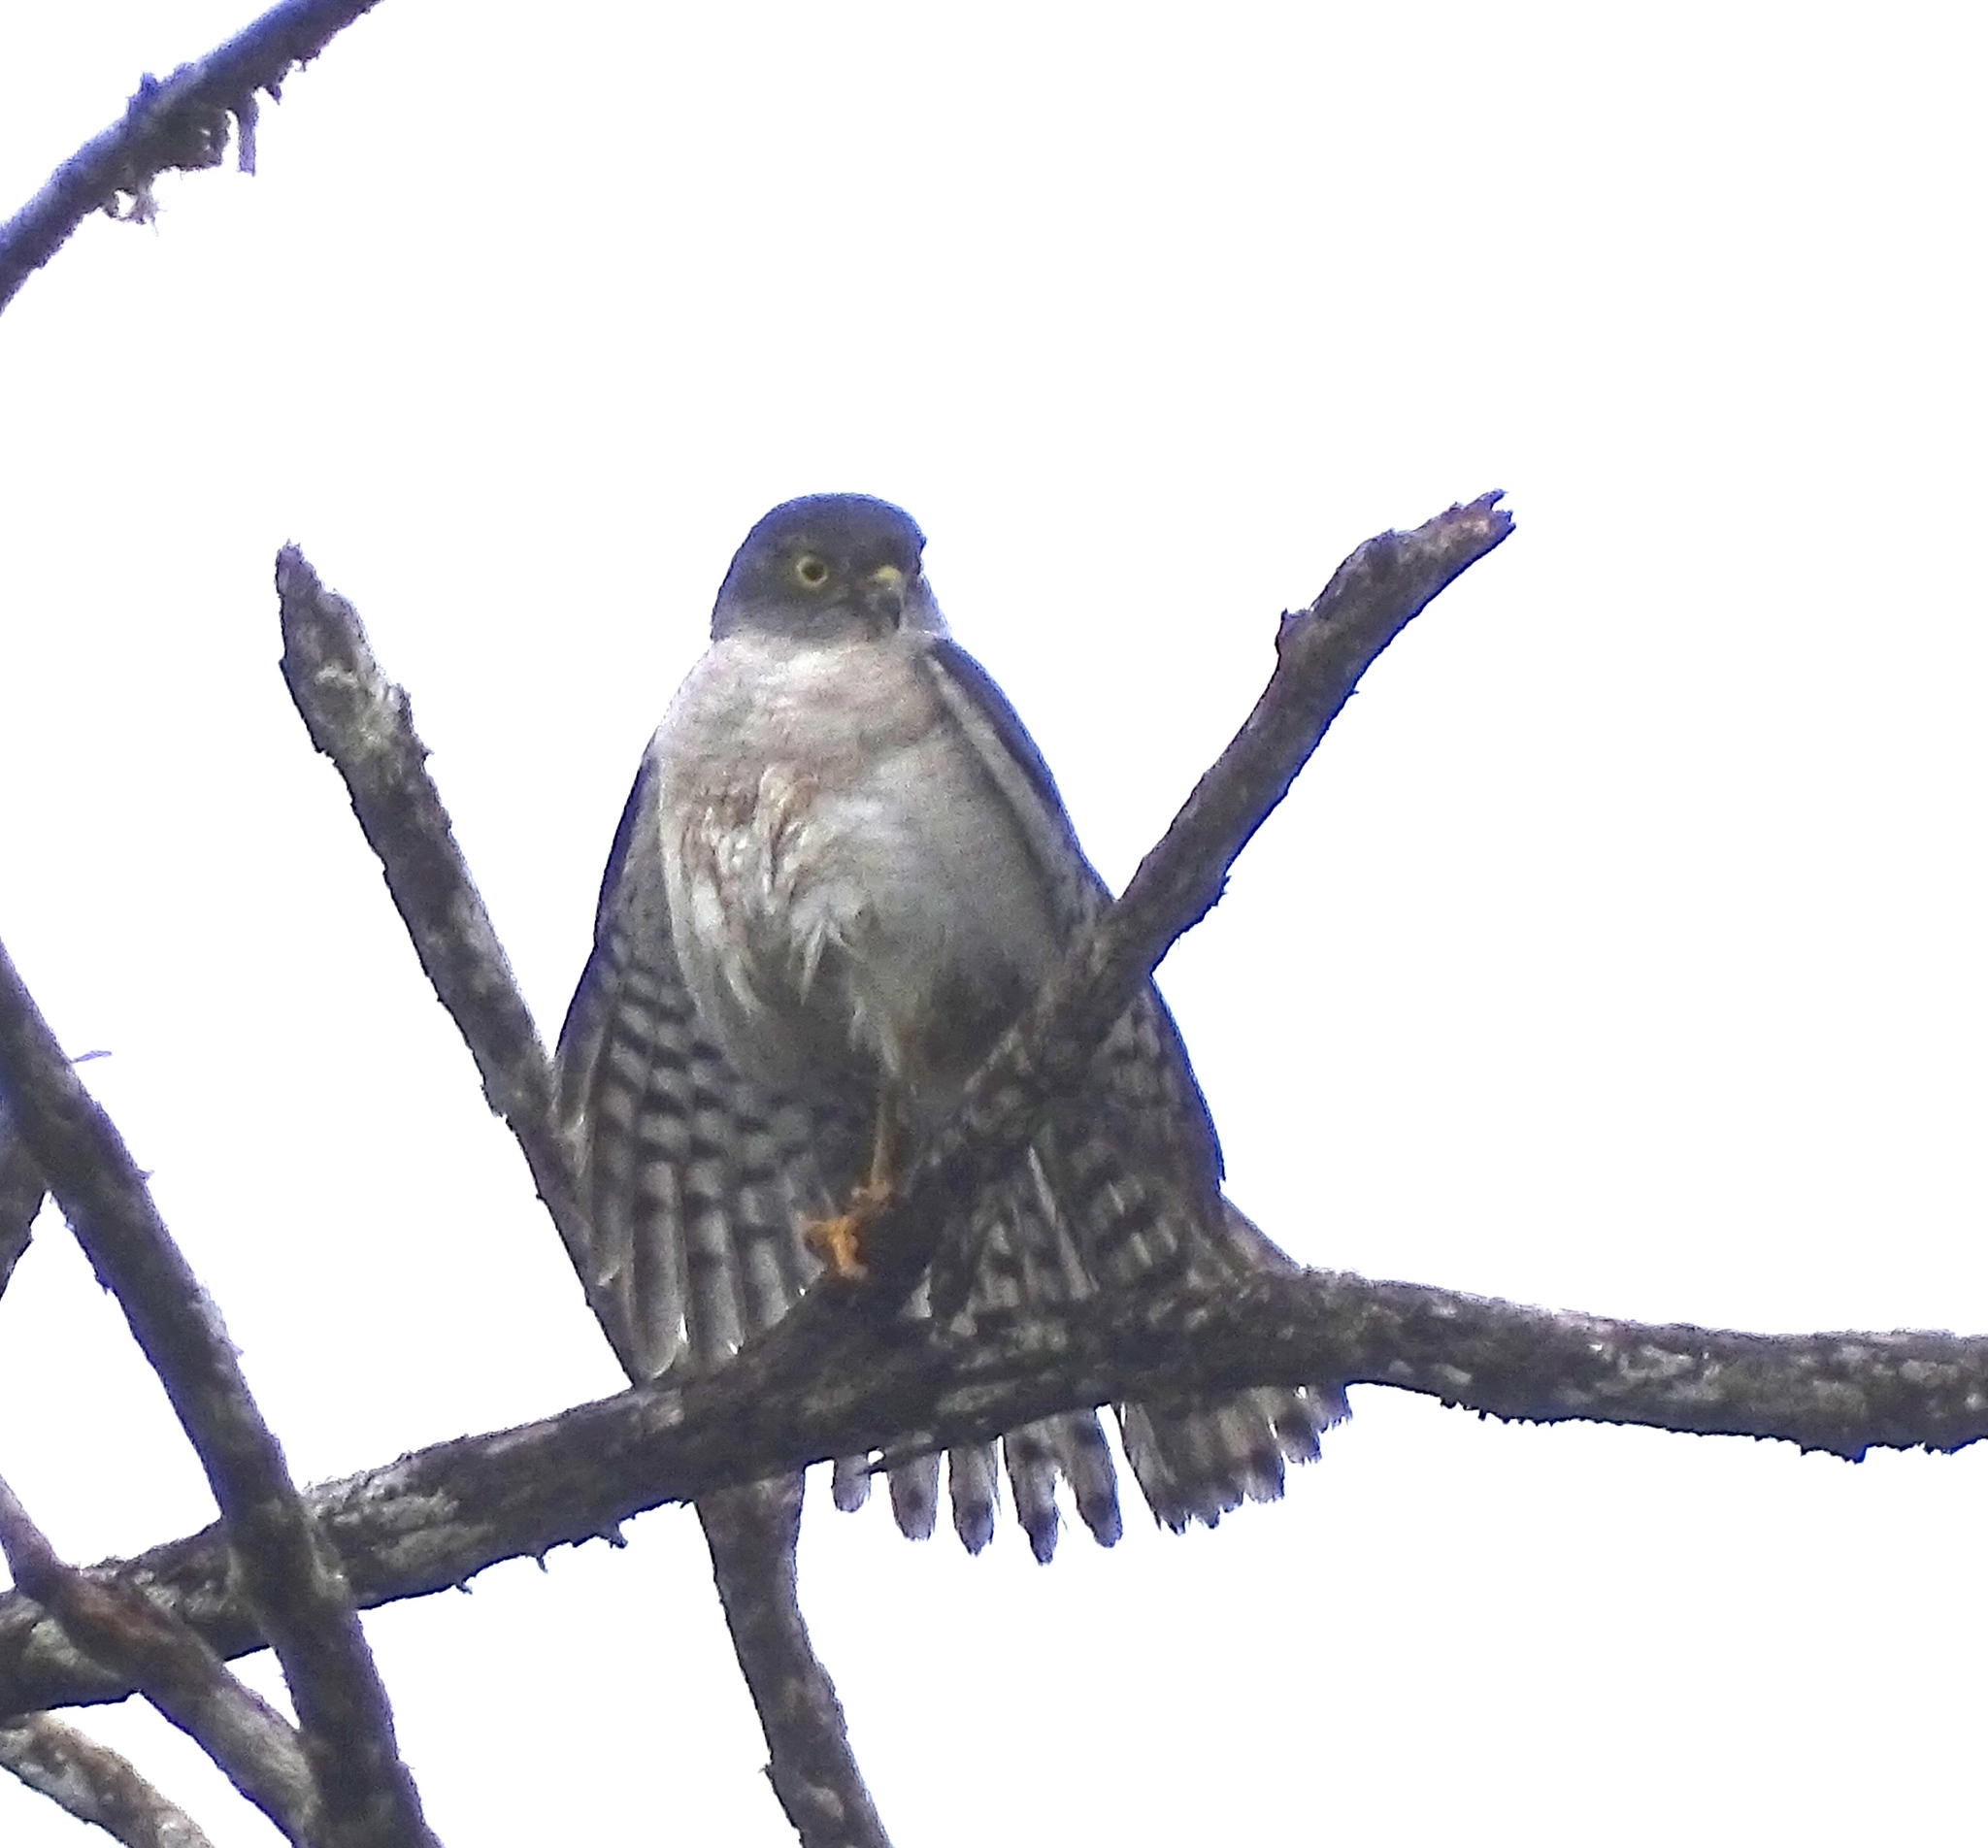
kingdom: Animalia
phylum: Chordata
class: Aves
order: Accipitriformes
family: Accipitridae
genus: Accipiter
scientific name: Accipiter francesiae
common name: Frances's sparrowhawk
